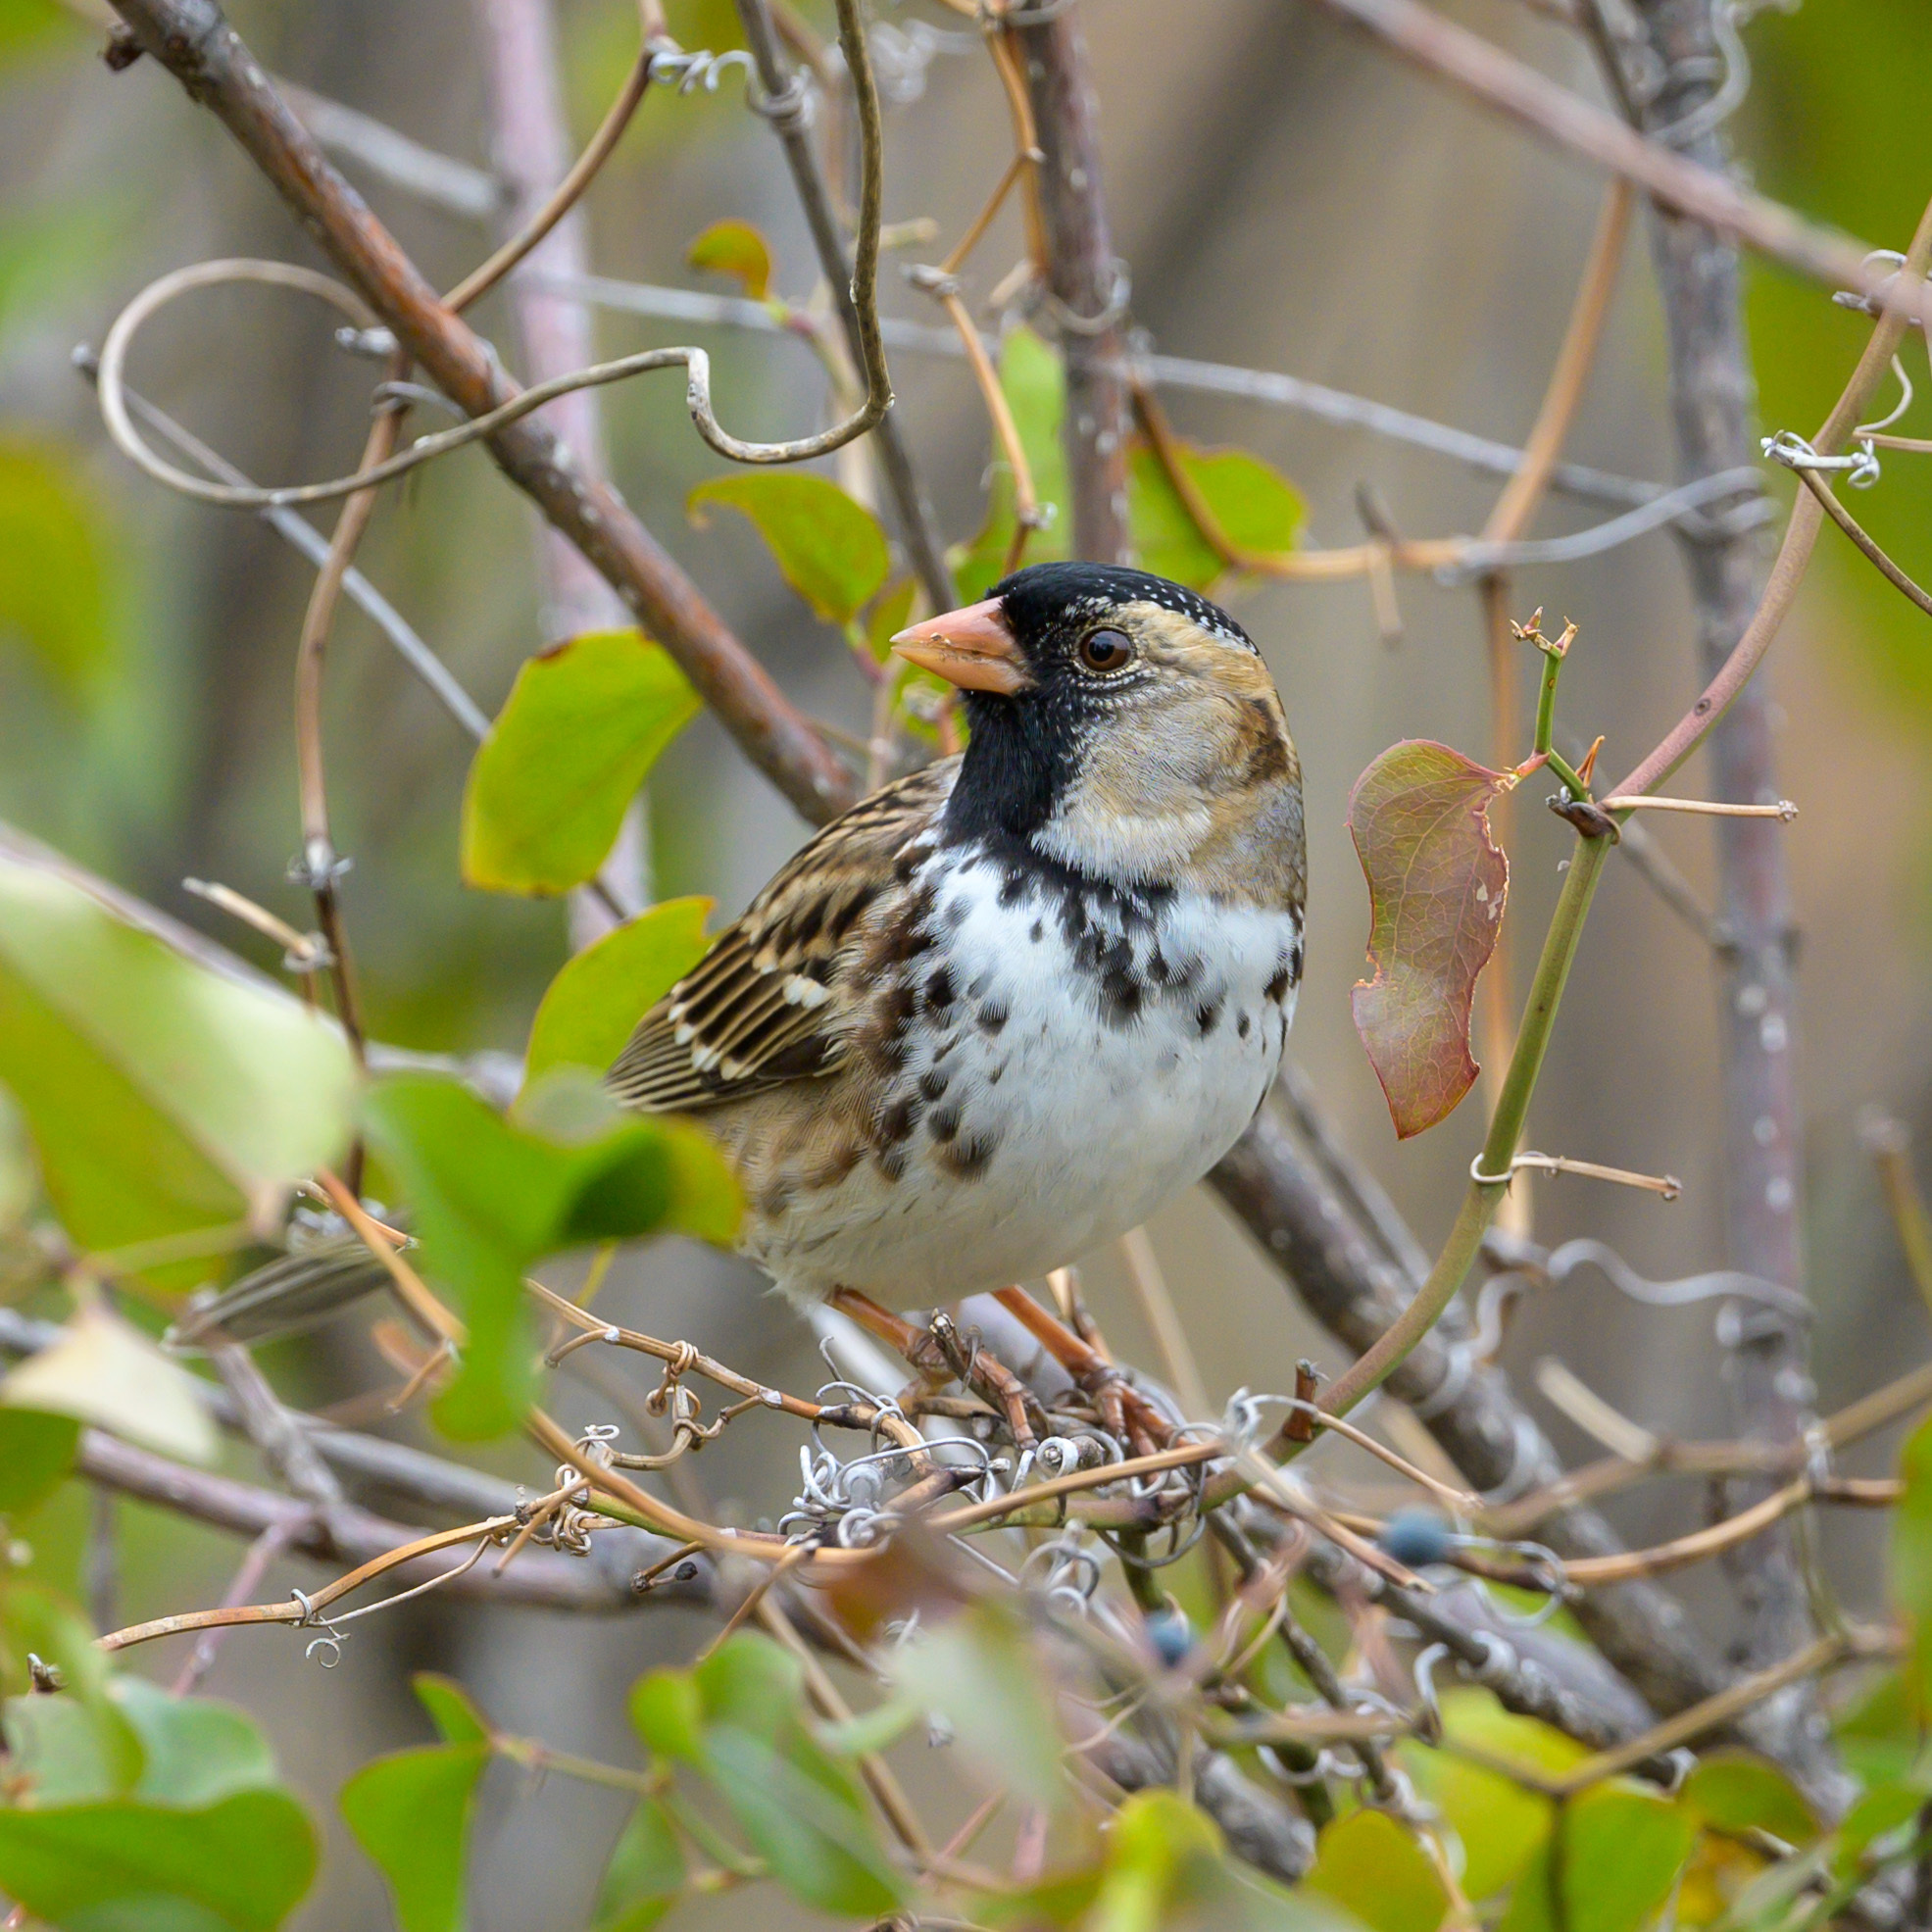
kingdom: Animalia
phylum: Chordata
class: Aves
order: Passeriformes
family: Passerellidae
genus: Zonotrichia
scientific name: Zonotrichia querula
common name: Harris's sparrow
